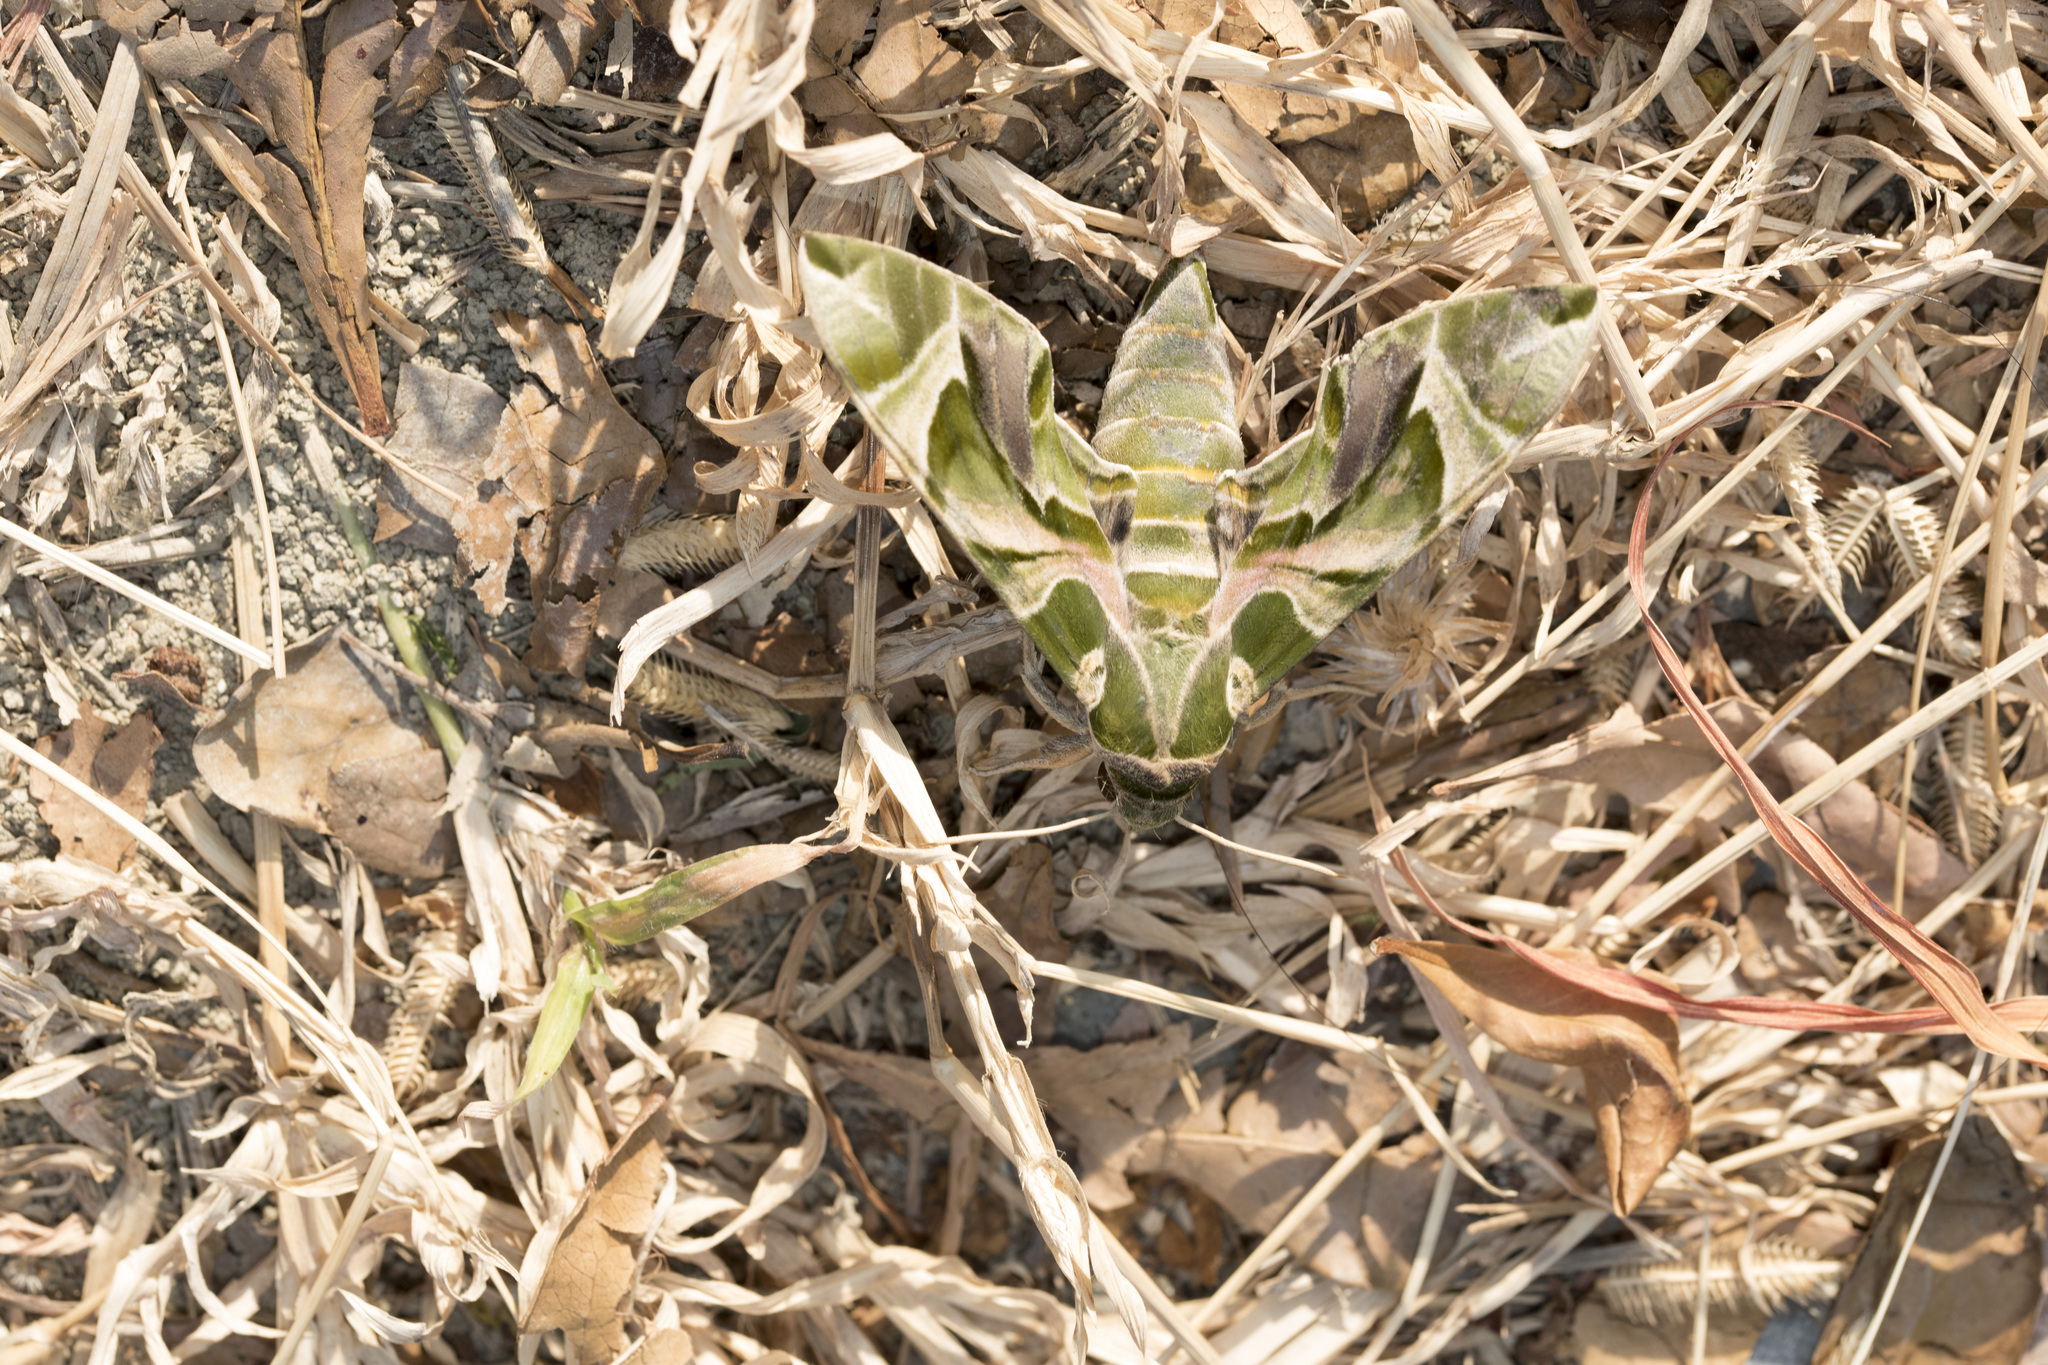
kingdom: Animalia
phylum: Arthropoda
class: Insecta
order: Lepidoptera
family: Sphingidae
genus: Daphnis
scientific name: Daphnis nerii
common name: Oleander hawk-moth
